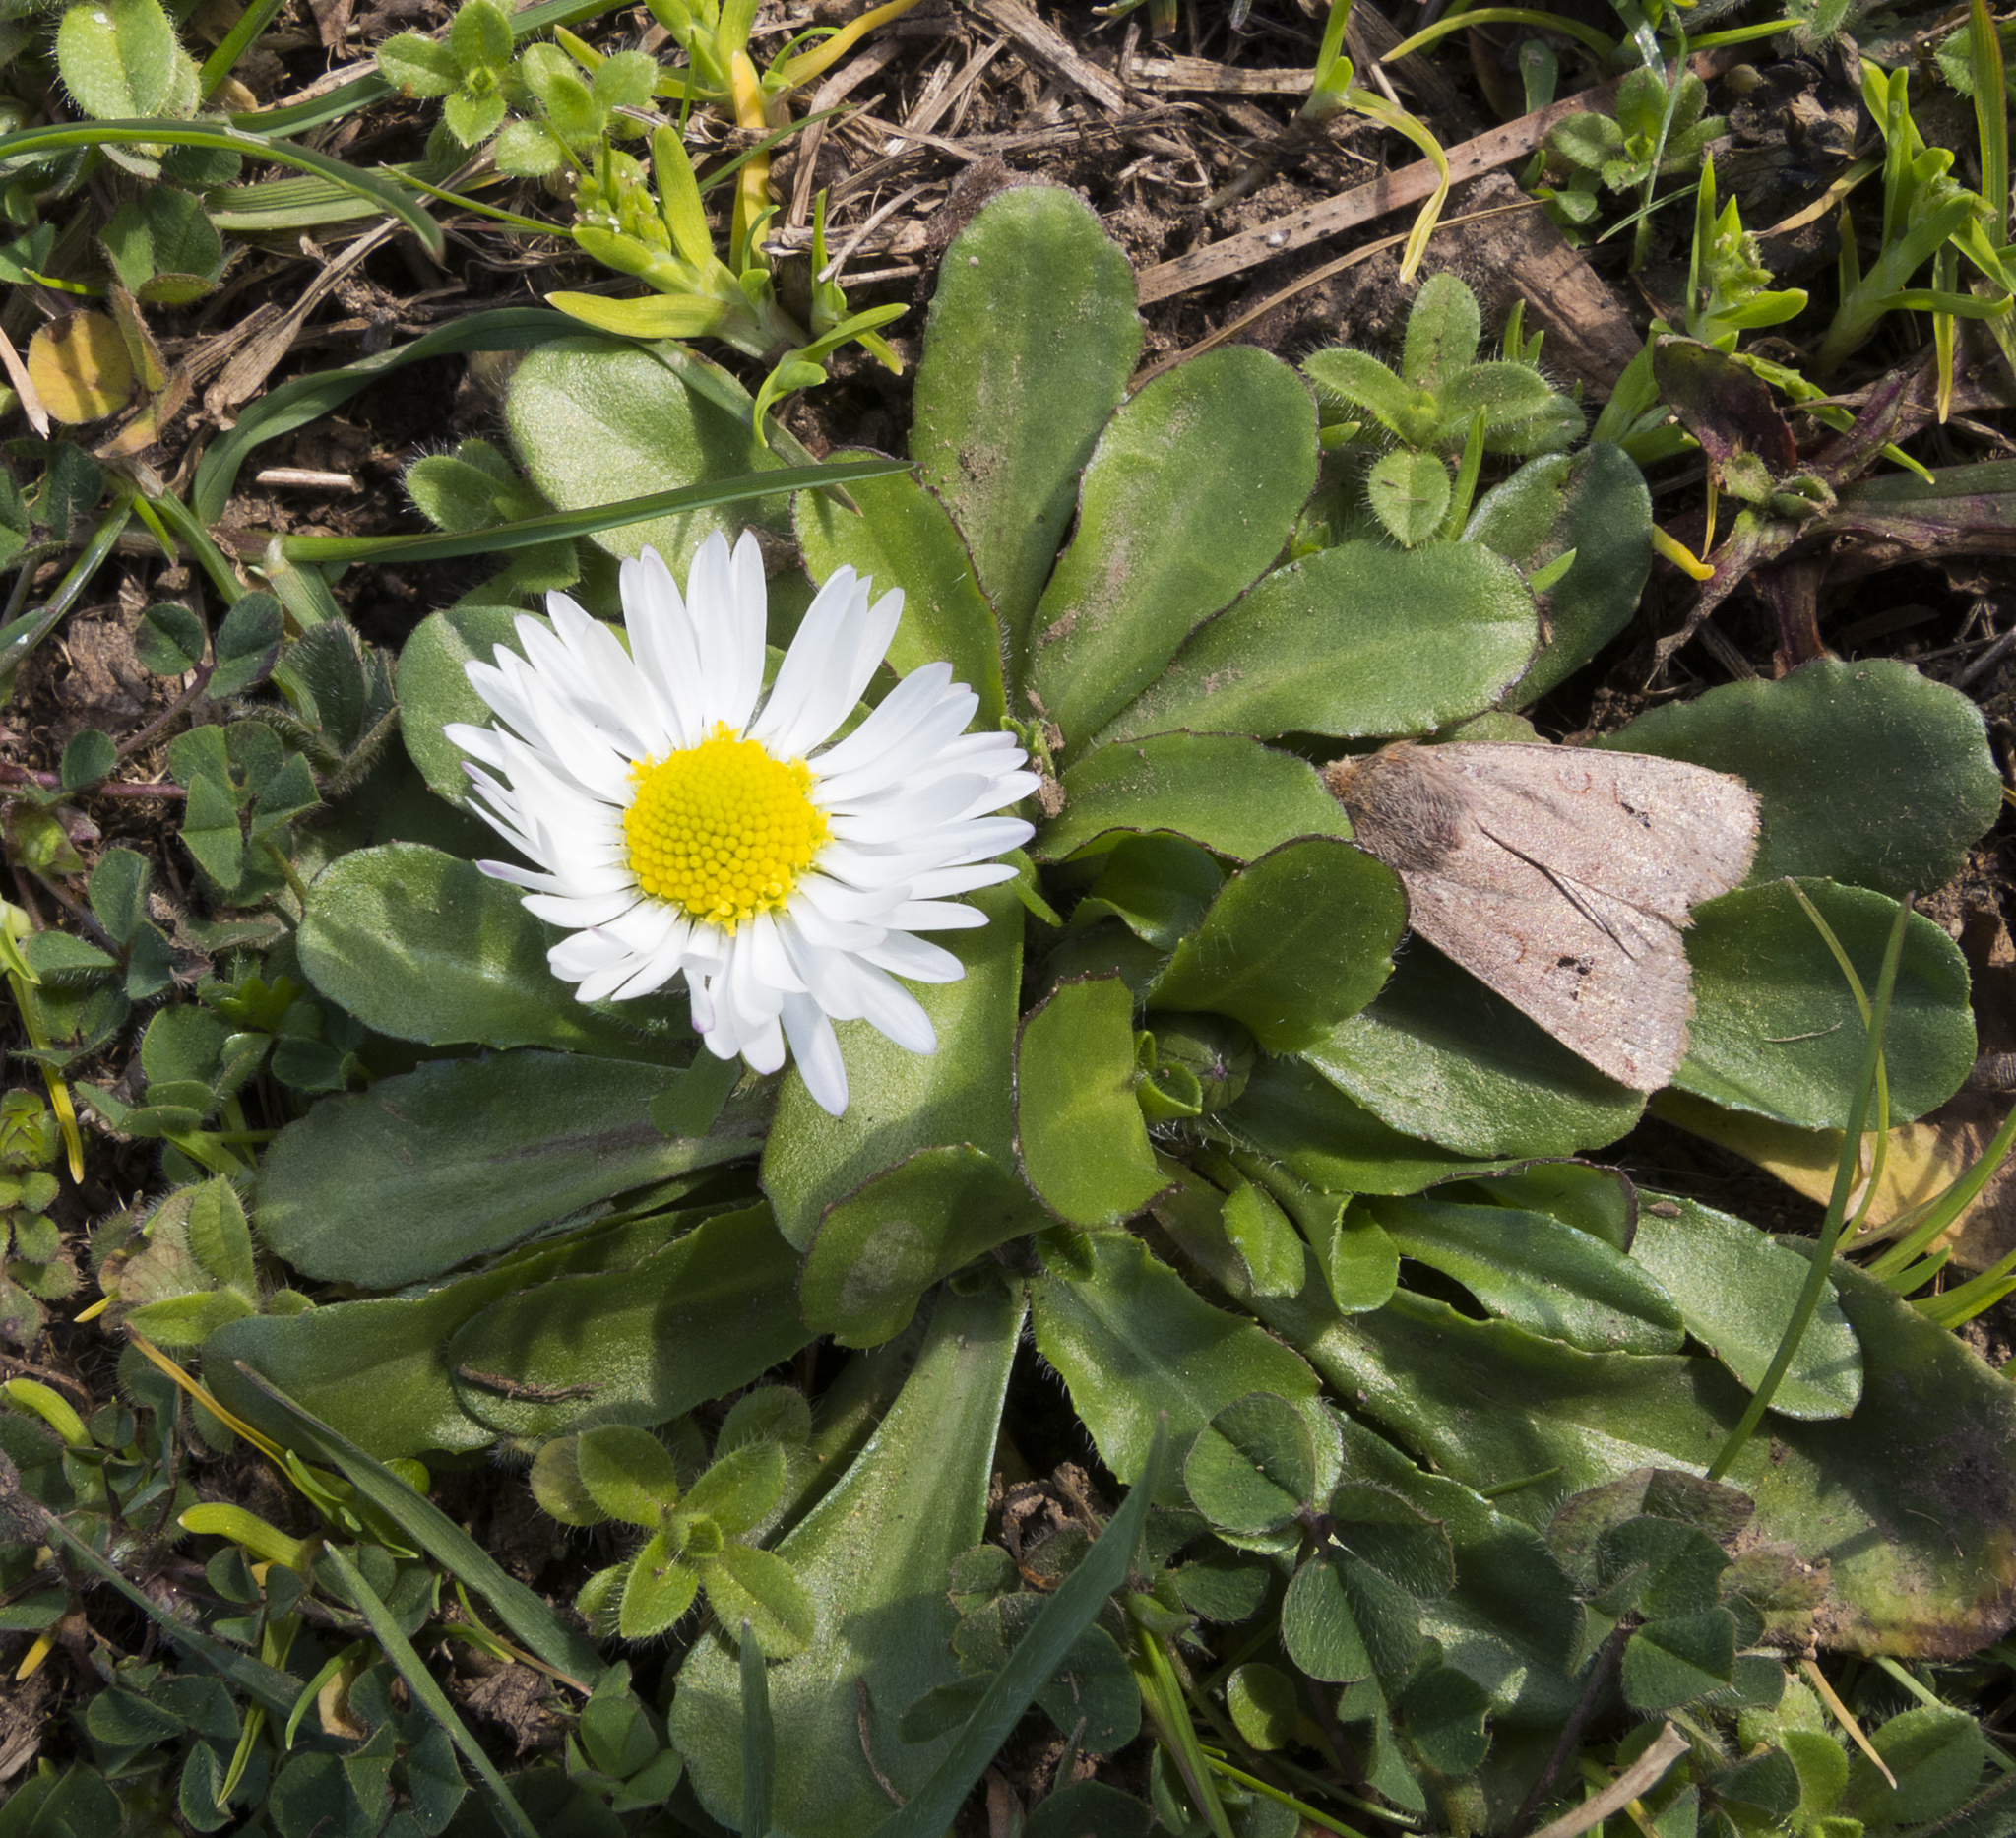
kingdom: Animalia
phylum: Arthropoda
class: Insecta
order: Lepidoptera
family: Noctuidae
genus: Conistra
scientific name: Conistra erythrocephala
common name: Red-headed chestnut
